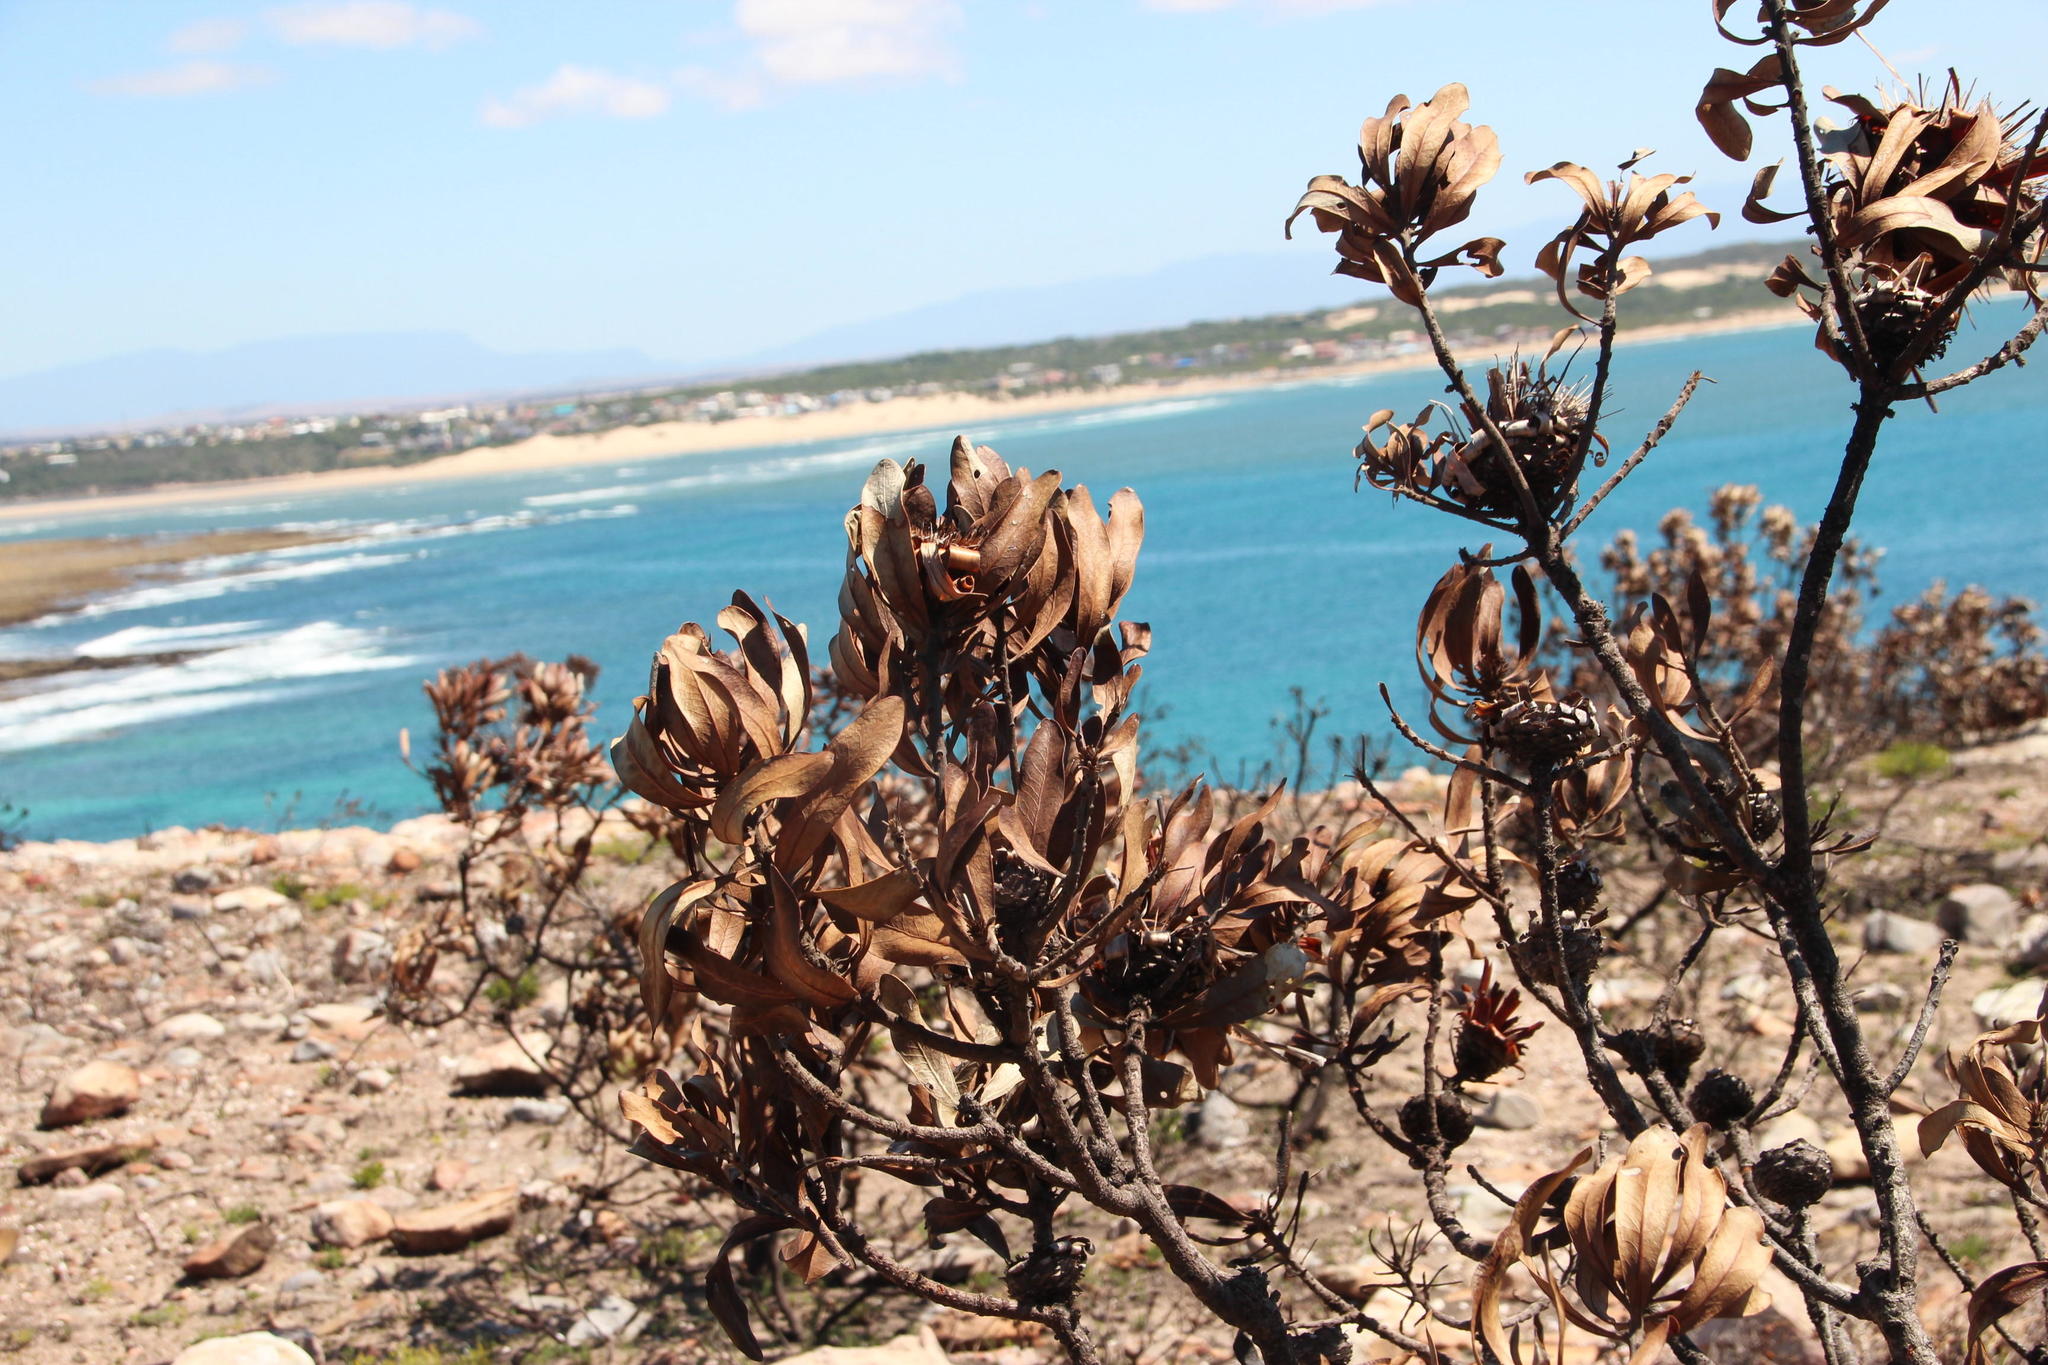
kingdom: Plantae
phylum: Tracheophyta
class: Magnoliopsida
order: Proteales
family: Proteaceae
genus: Protea
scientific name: Protea obtusifolia
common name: Bredasdorp sugarbush
